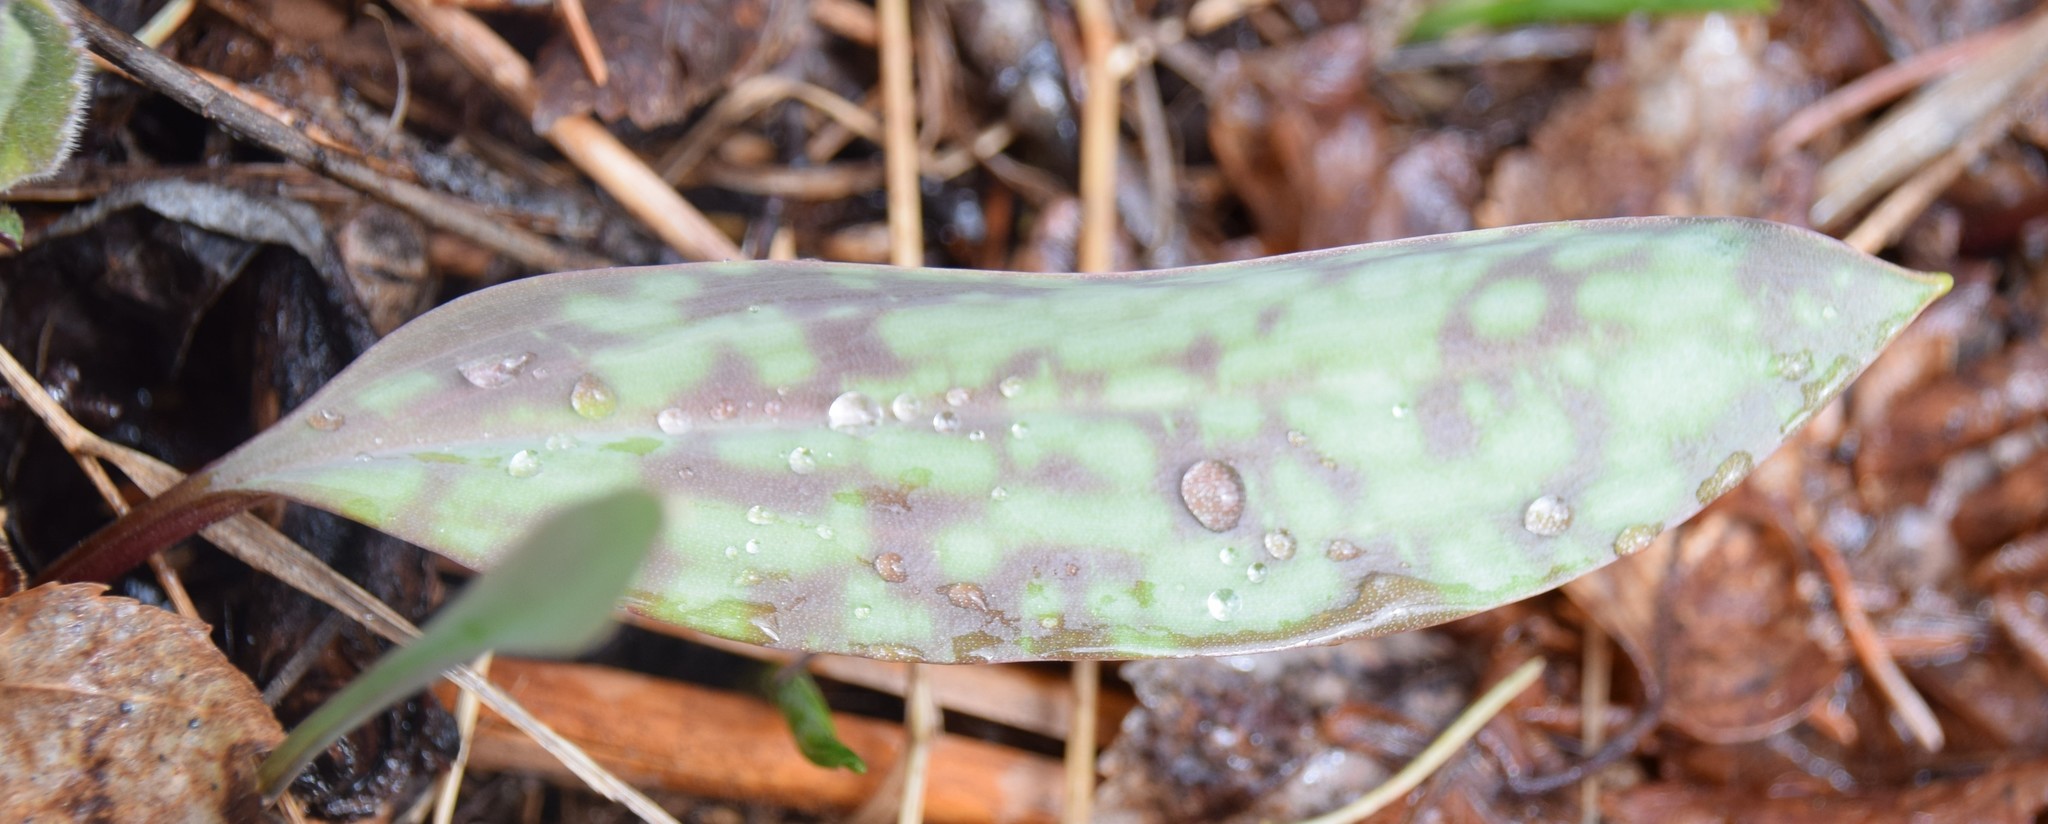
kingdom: Plantae
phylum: Tracheophyta
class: Liliopsida
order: Liliales
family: Liliaceae
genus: Erythronium
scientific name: Erythronium americanum
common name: Yellow adder's-tongue
